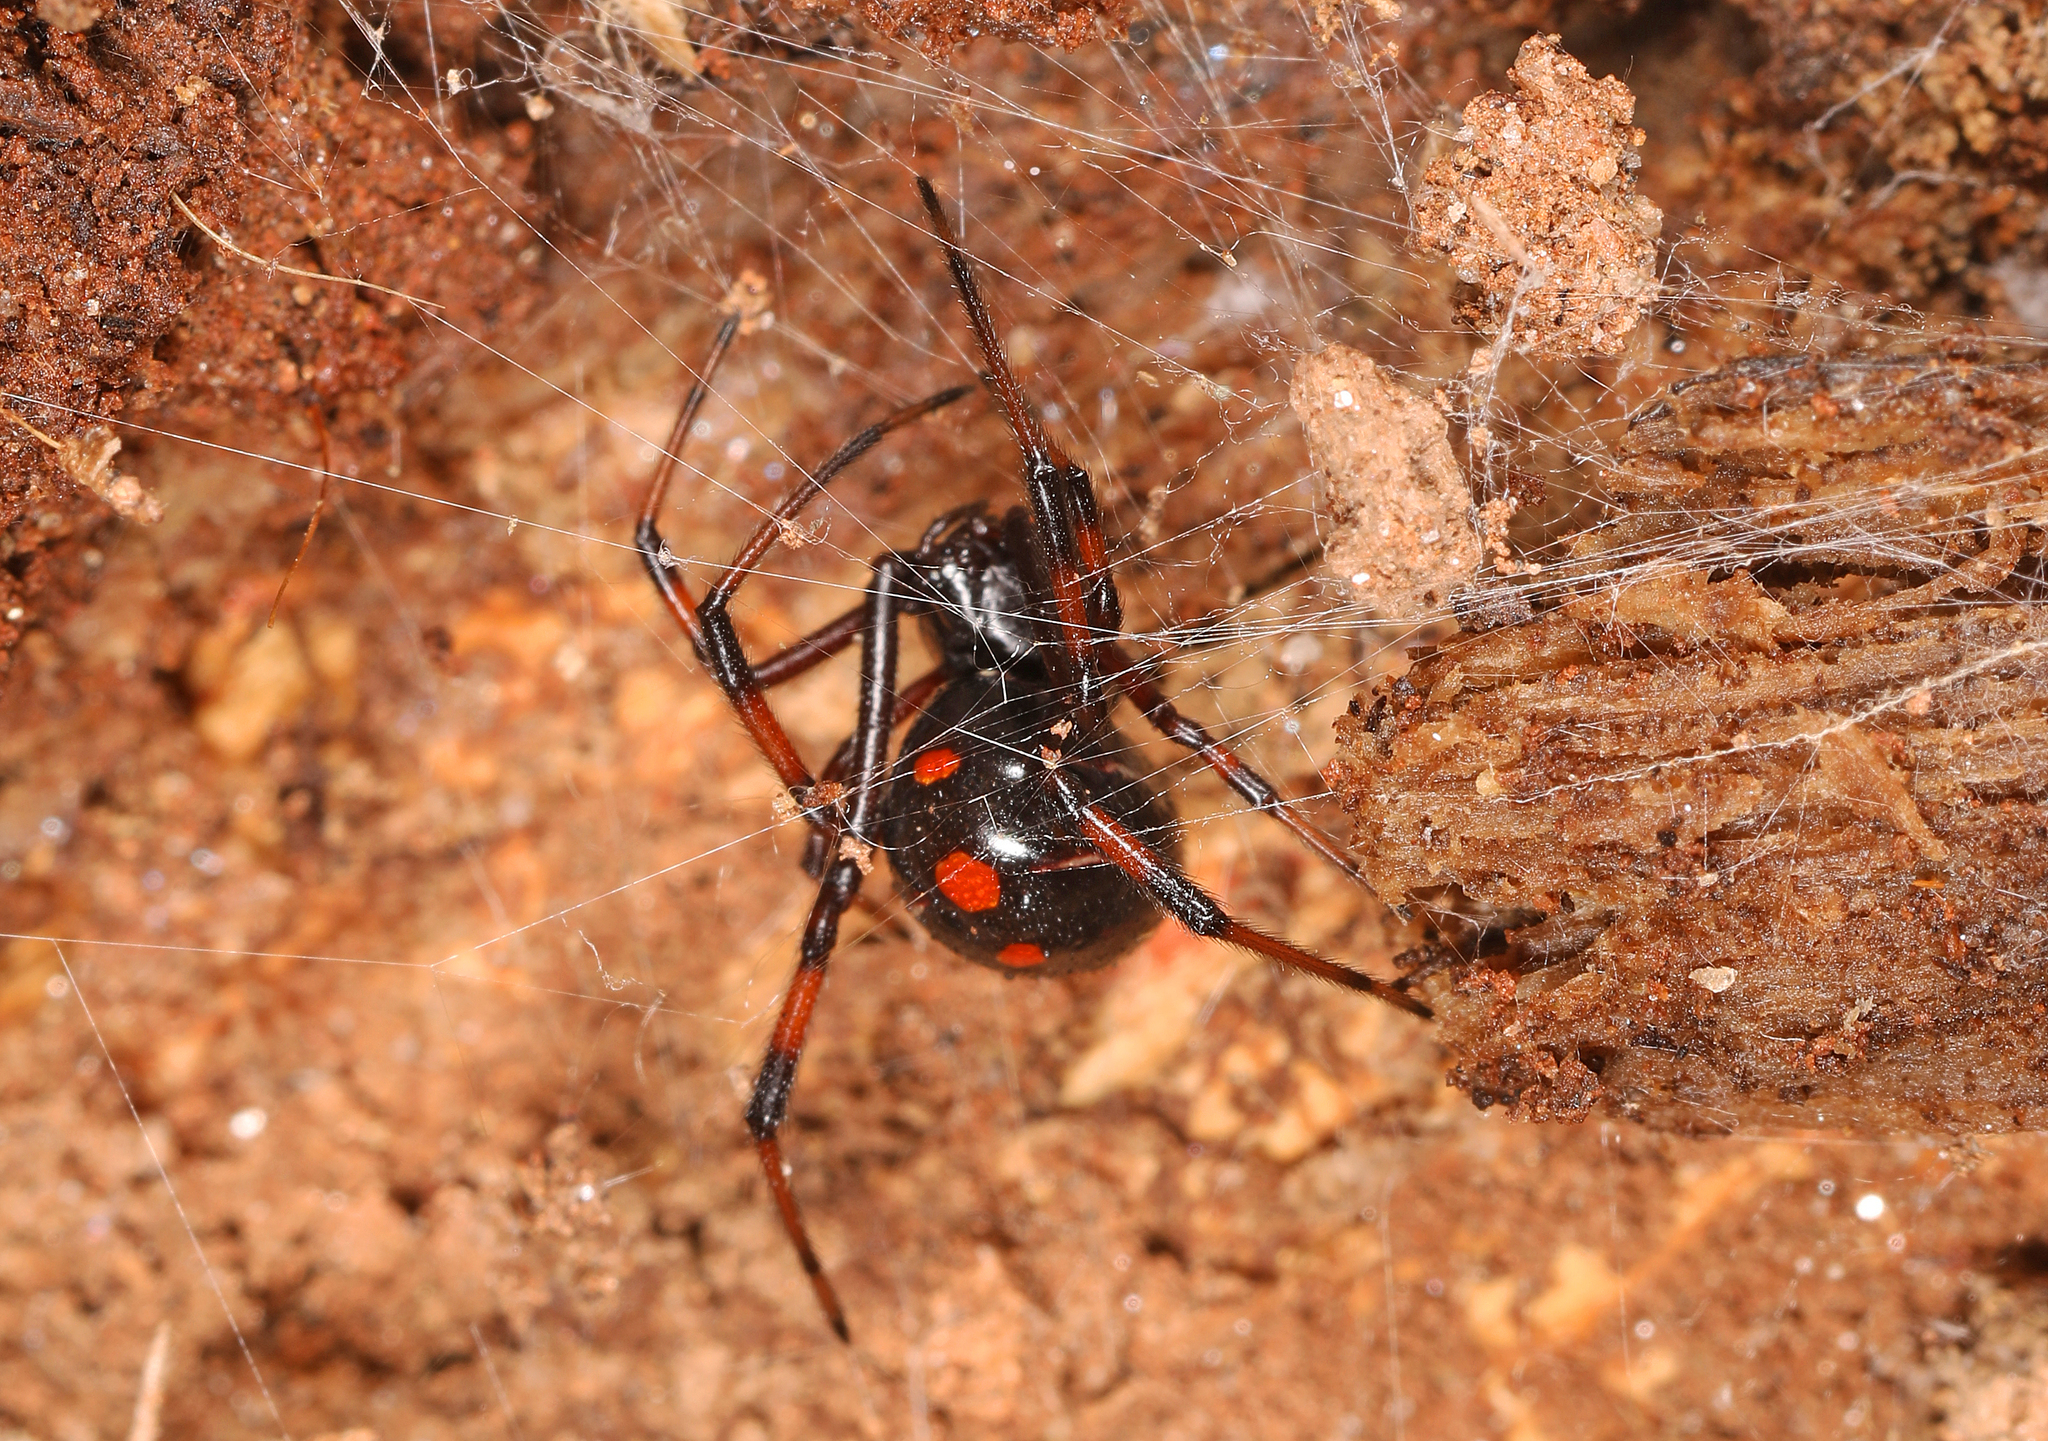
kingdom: Animalia
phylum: Arthropoda
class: Arachnida
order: Araneae
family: Theridiidae
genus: Latrodectus
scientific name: Latrodectus variolus
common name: Northern black widow
